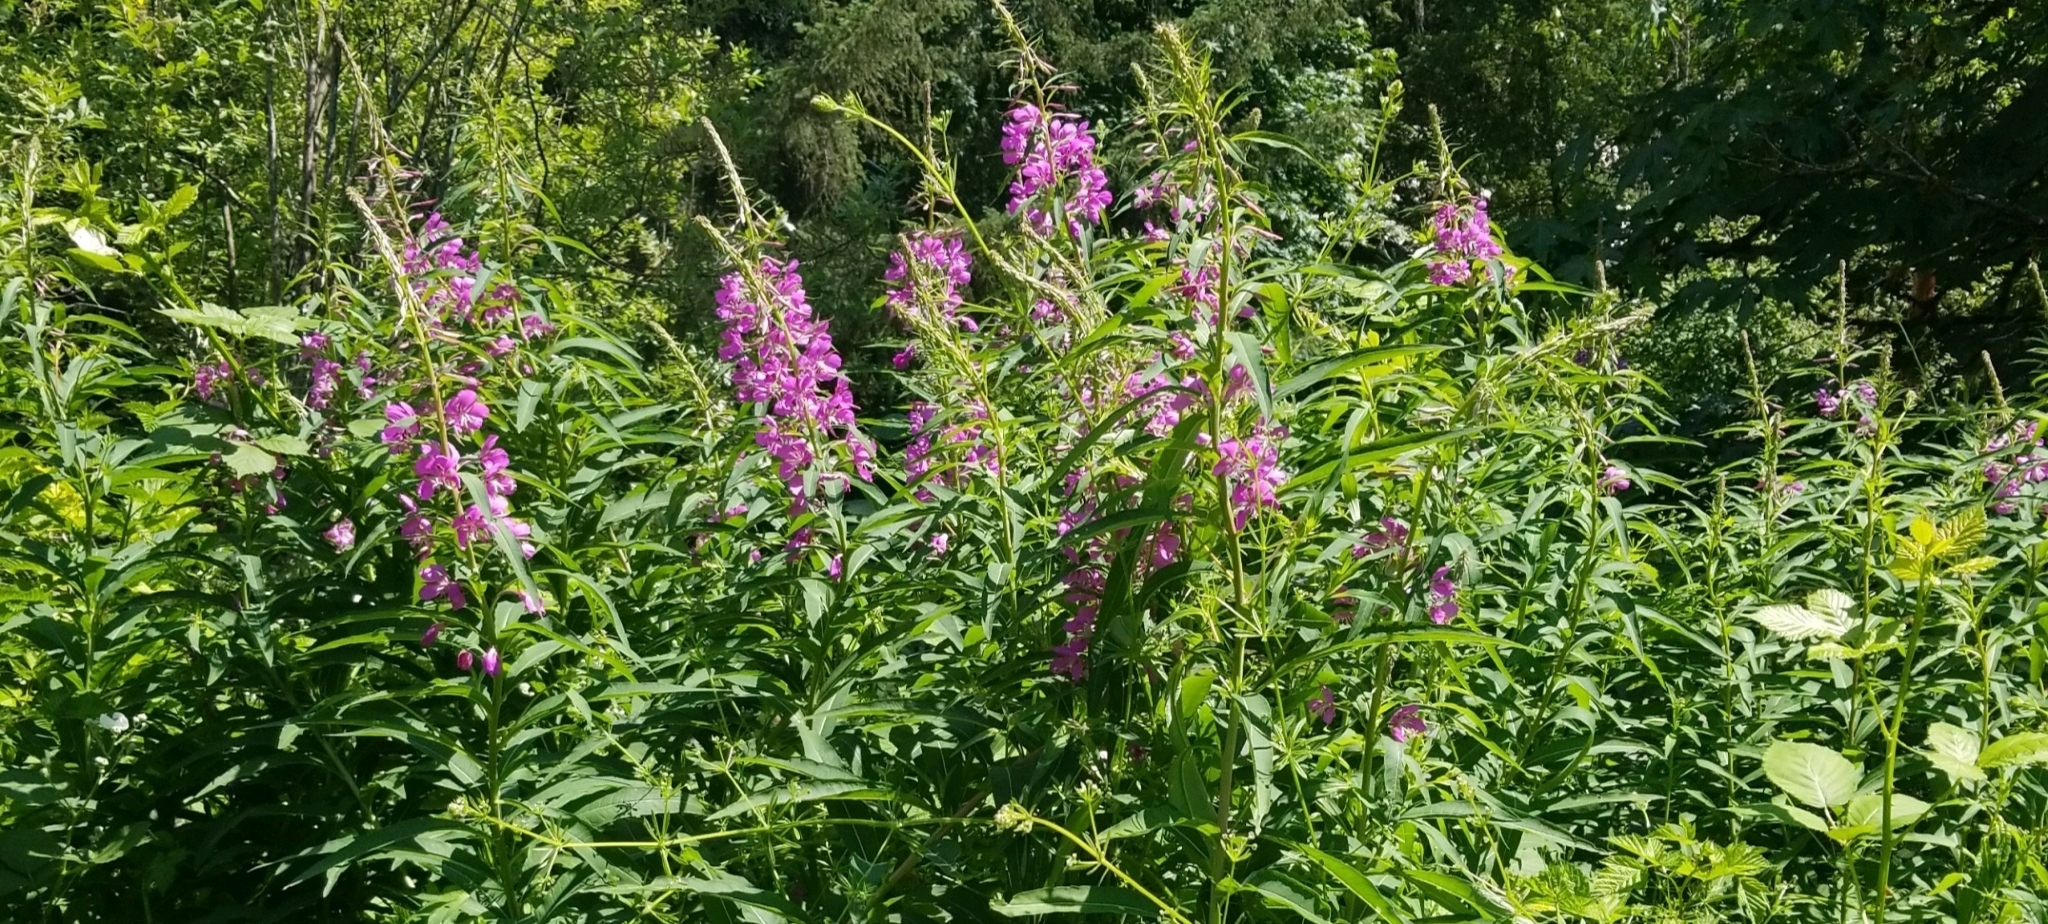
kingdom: Plantae
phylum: Tracheophyta
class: Magnoliopsida
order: Myrtales
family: Onagraceae
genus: Chamaenerion
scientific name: Chamaenerion angustifolium
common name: Fireweed
